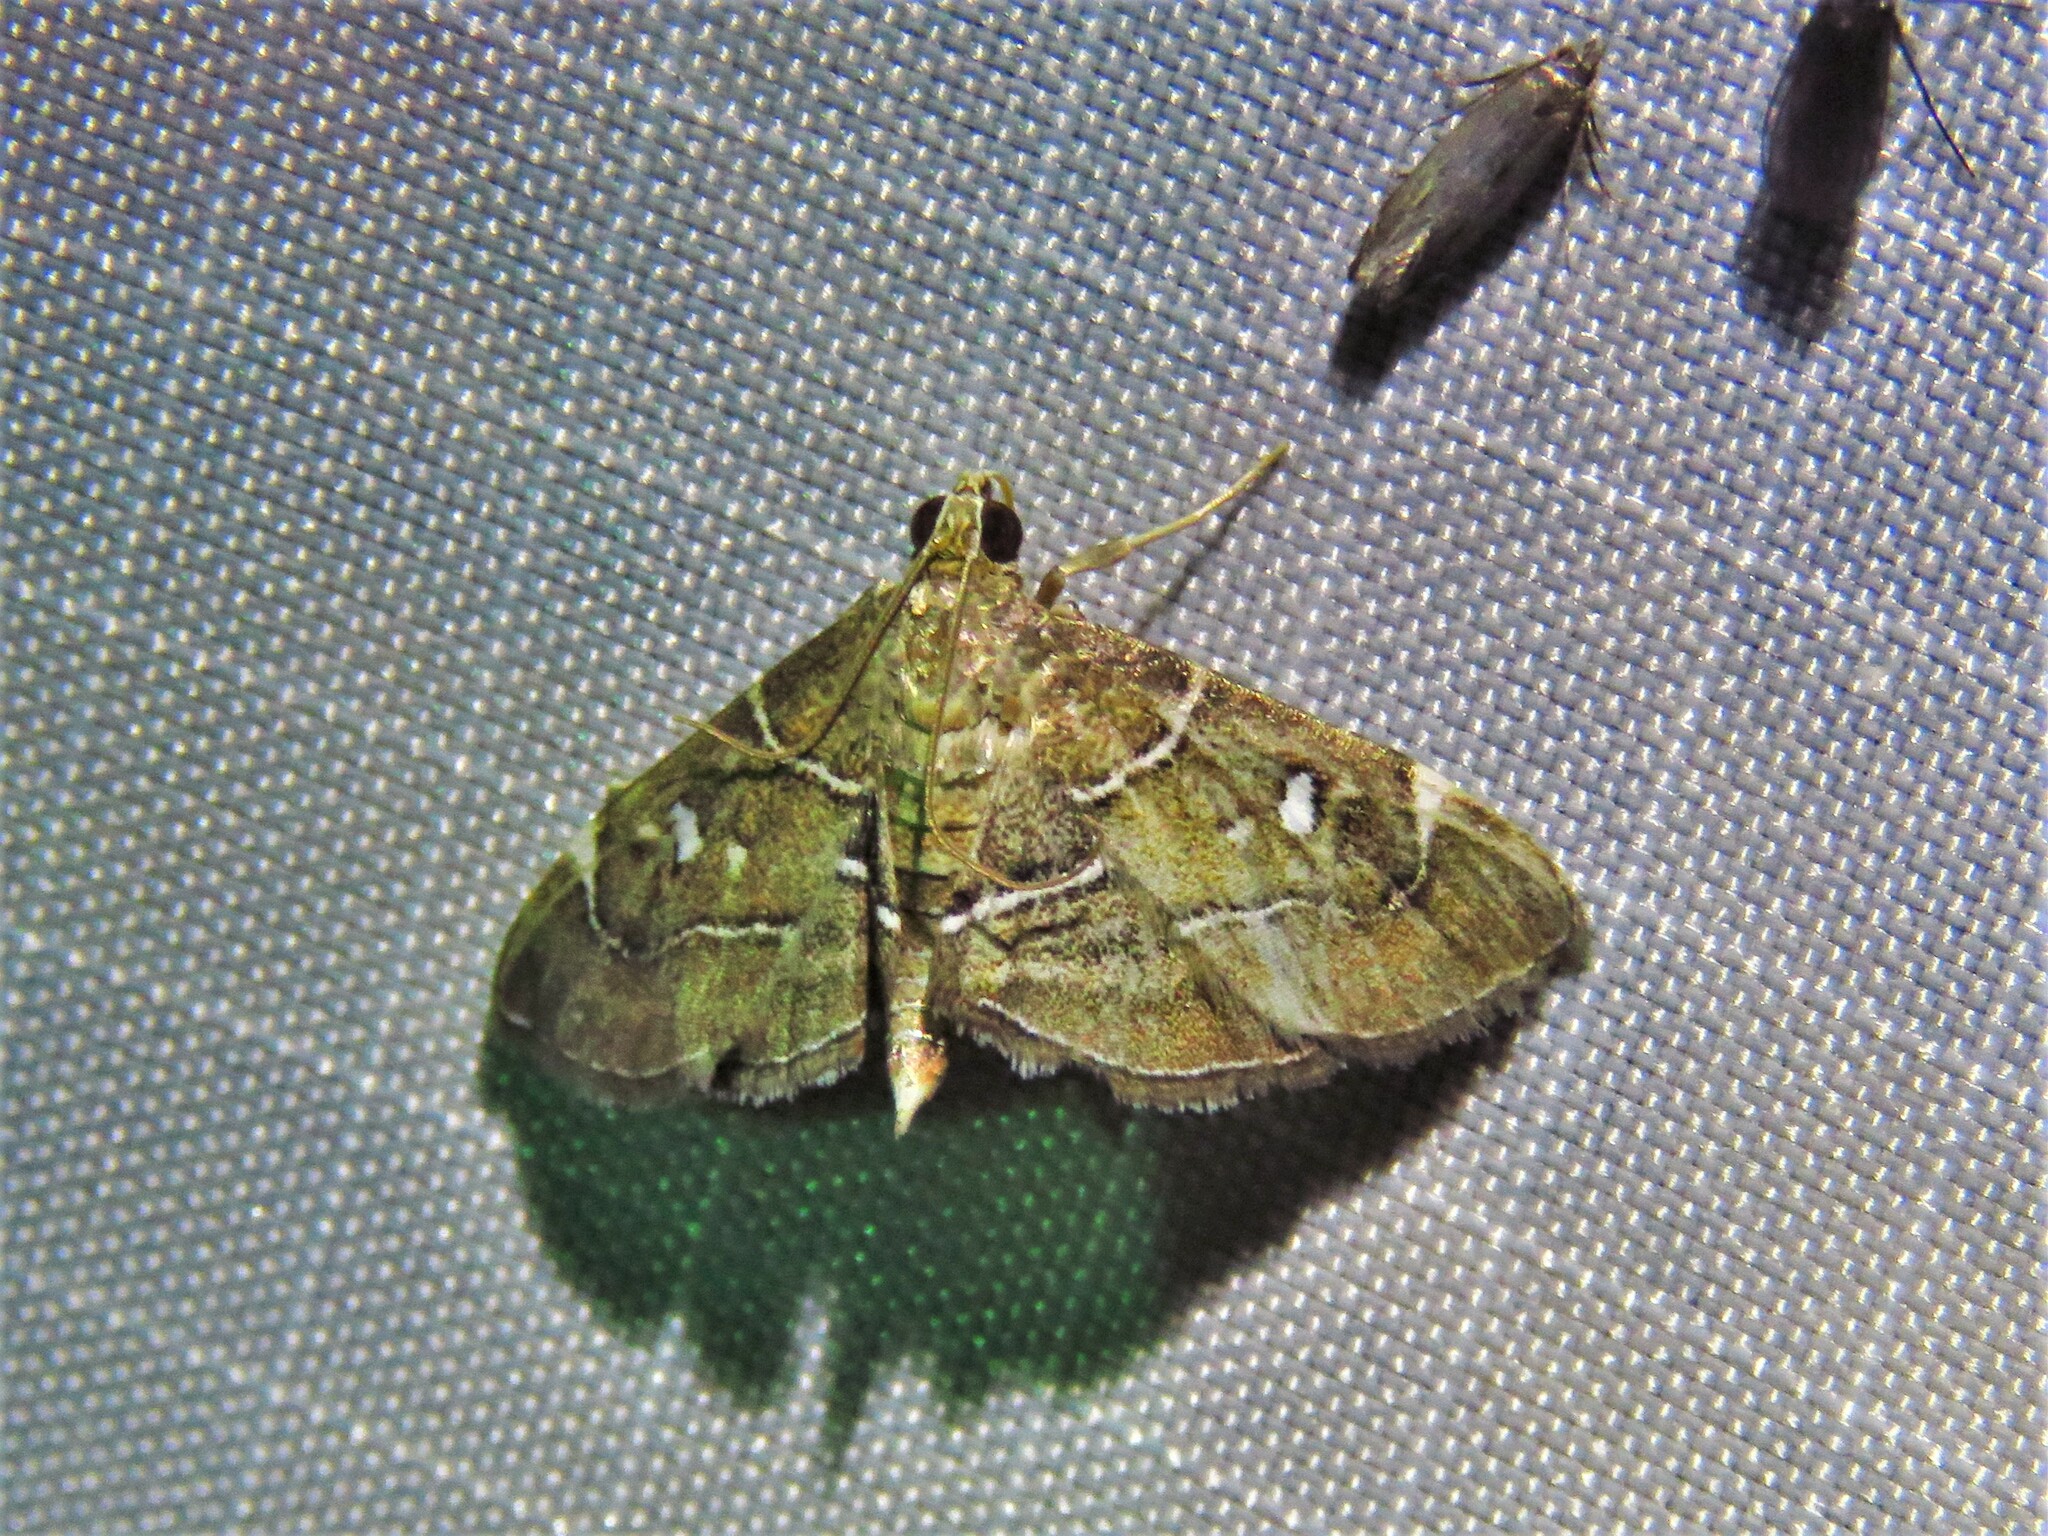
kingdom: Animalia
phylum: Arthropoda
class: Insecta
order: Lepidoptera
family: Crambidae
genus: Lamprosema
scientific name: Lamprosema victoriae
